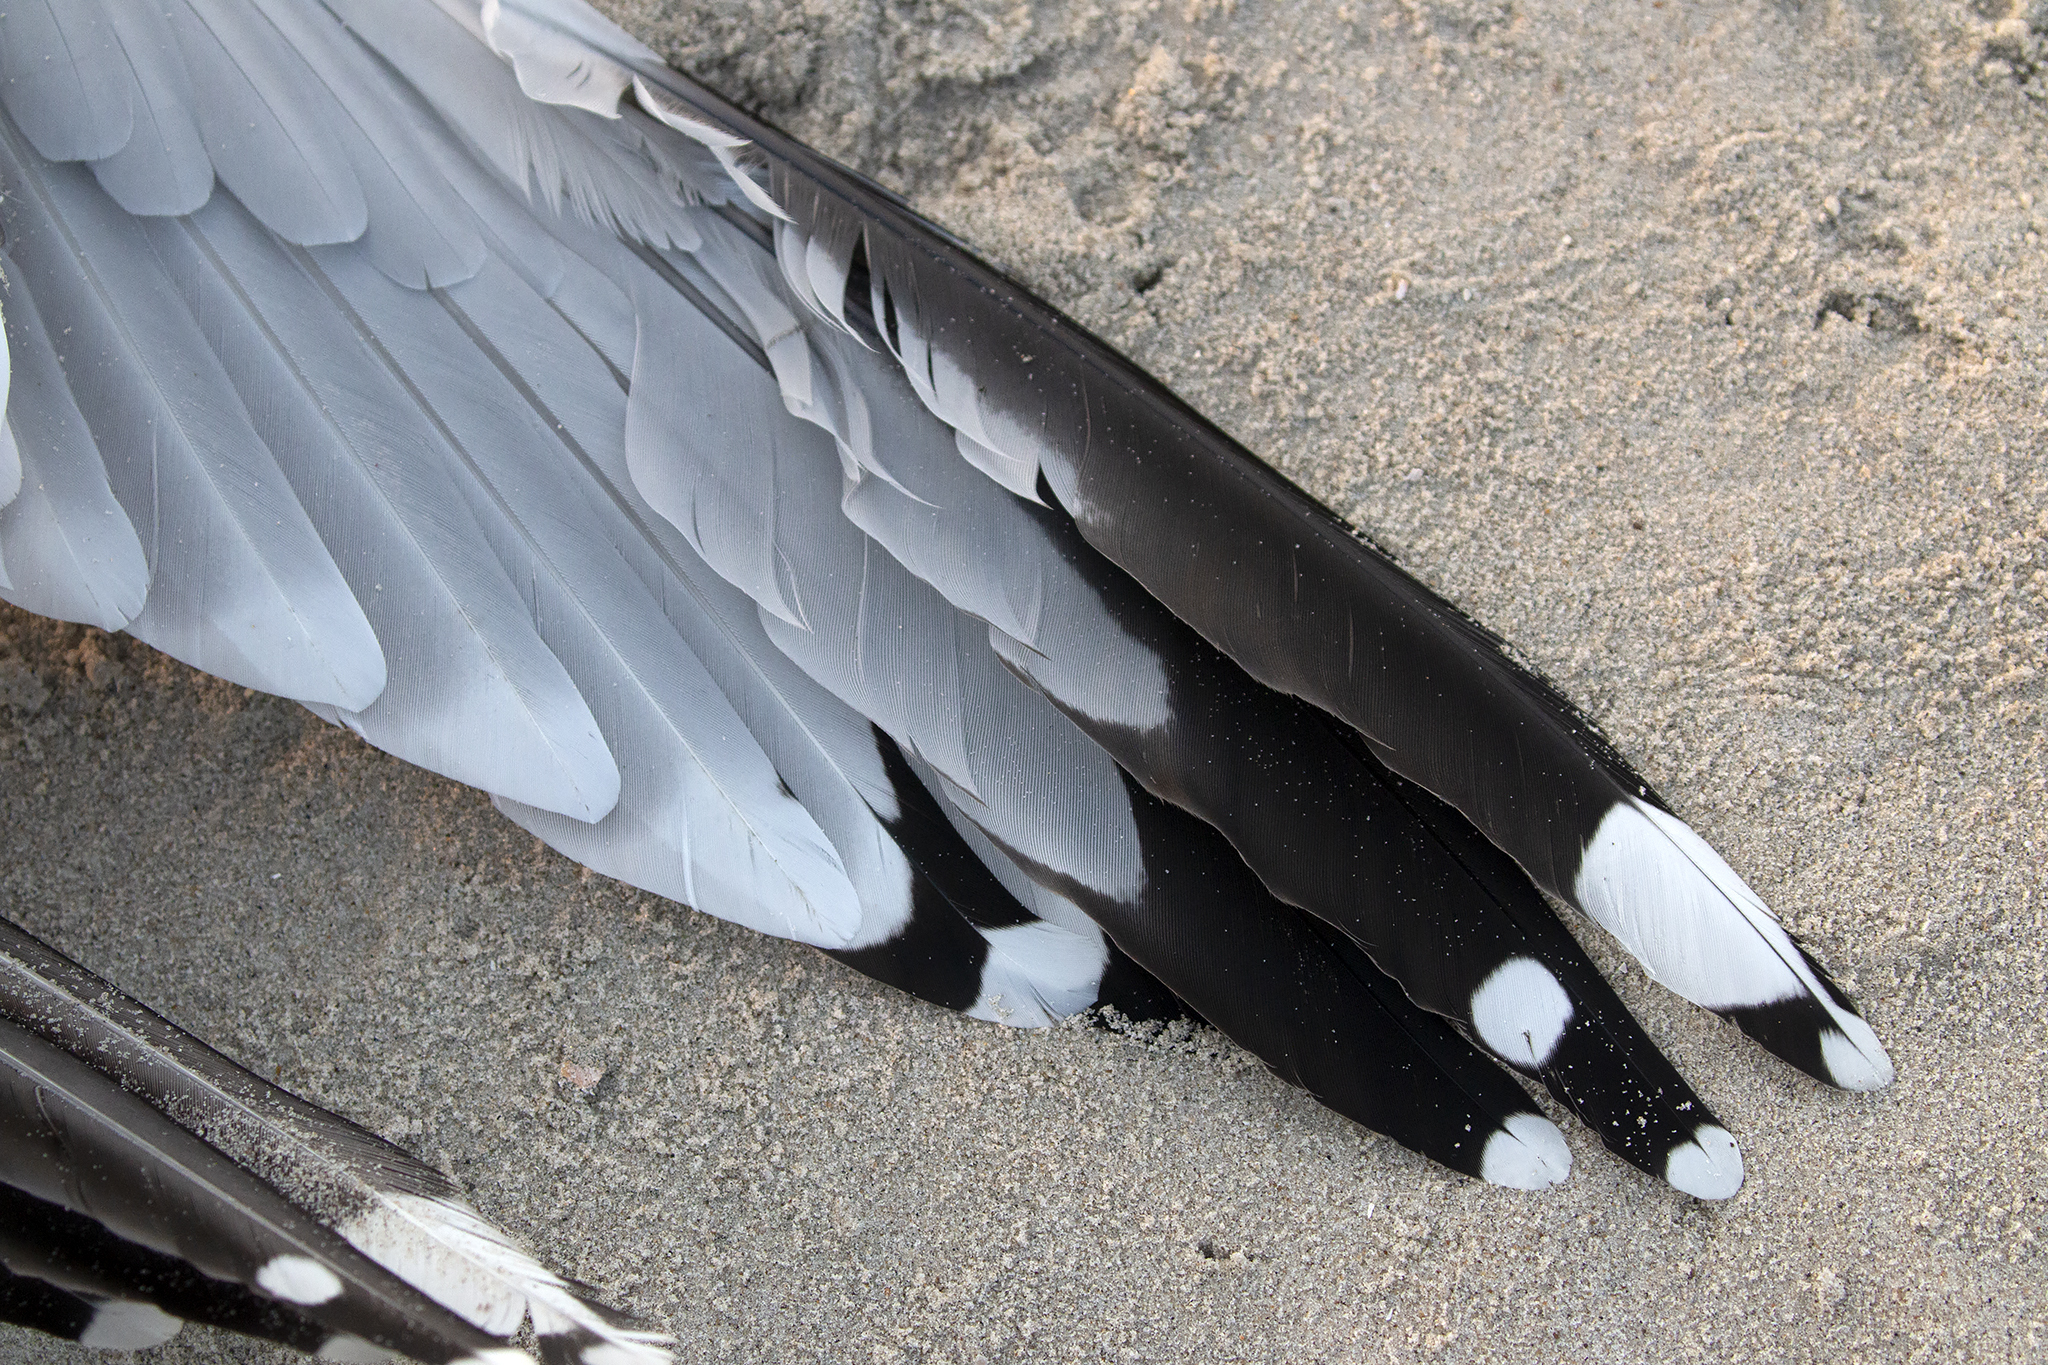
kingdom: Animalia
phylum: Chordata
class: Aves
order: Charadriiformes
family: Laridae
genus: Larus
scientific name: Larus argentatus
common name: Herring gull
